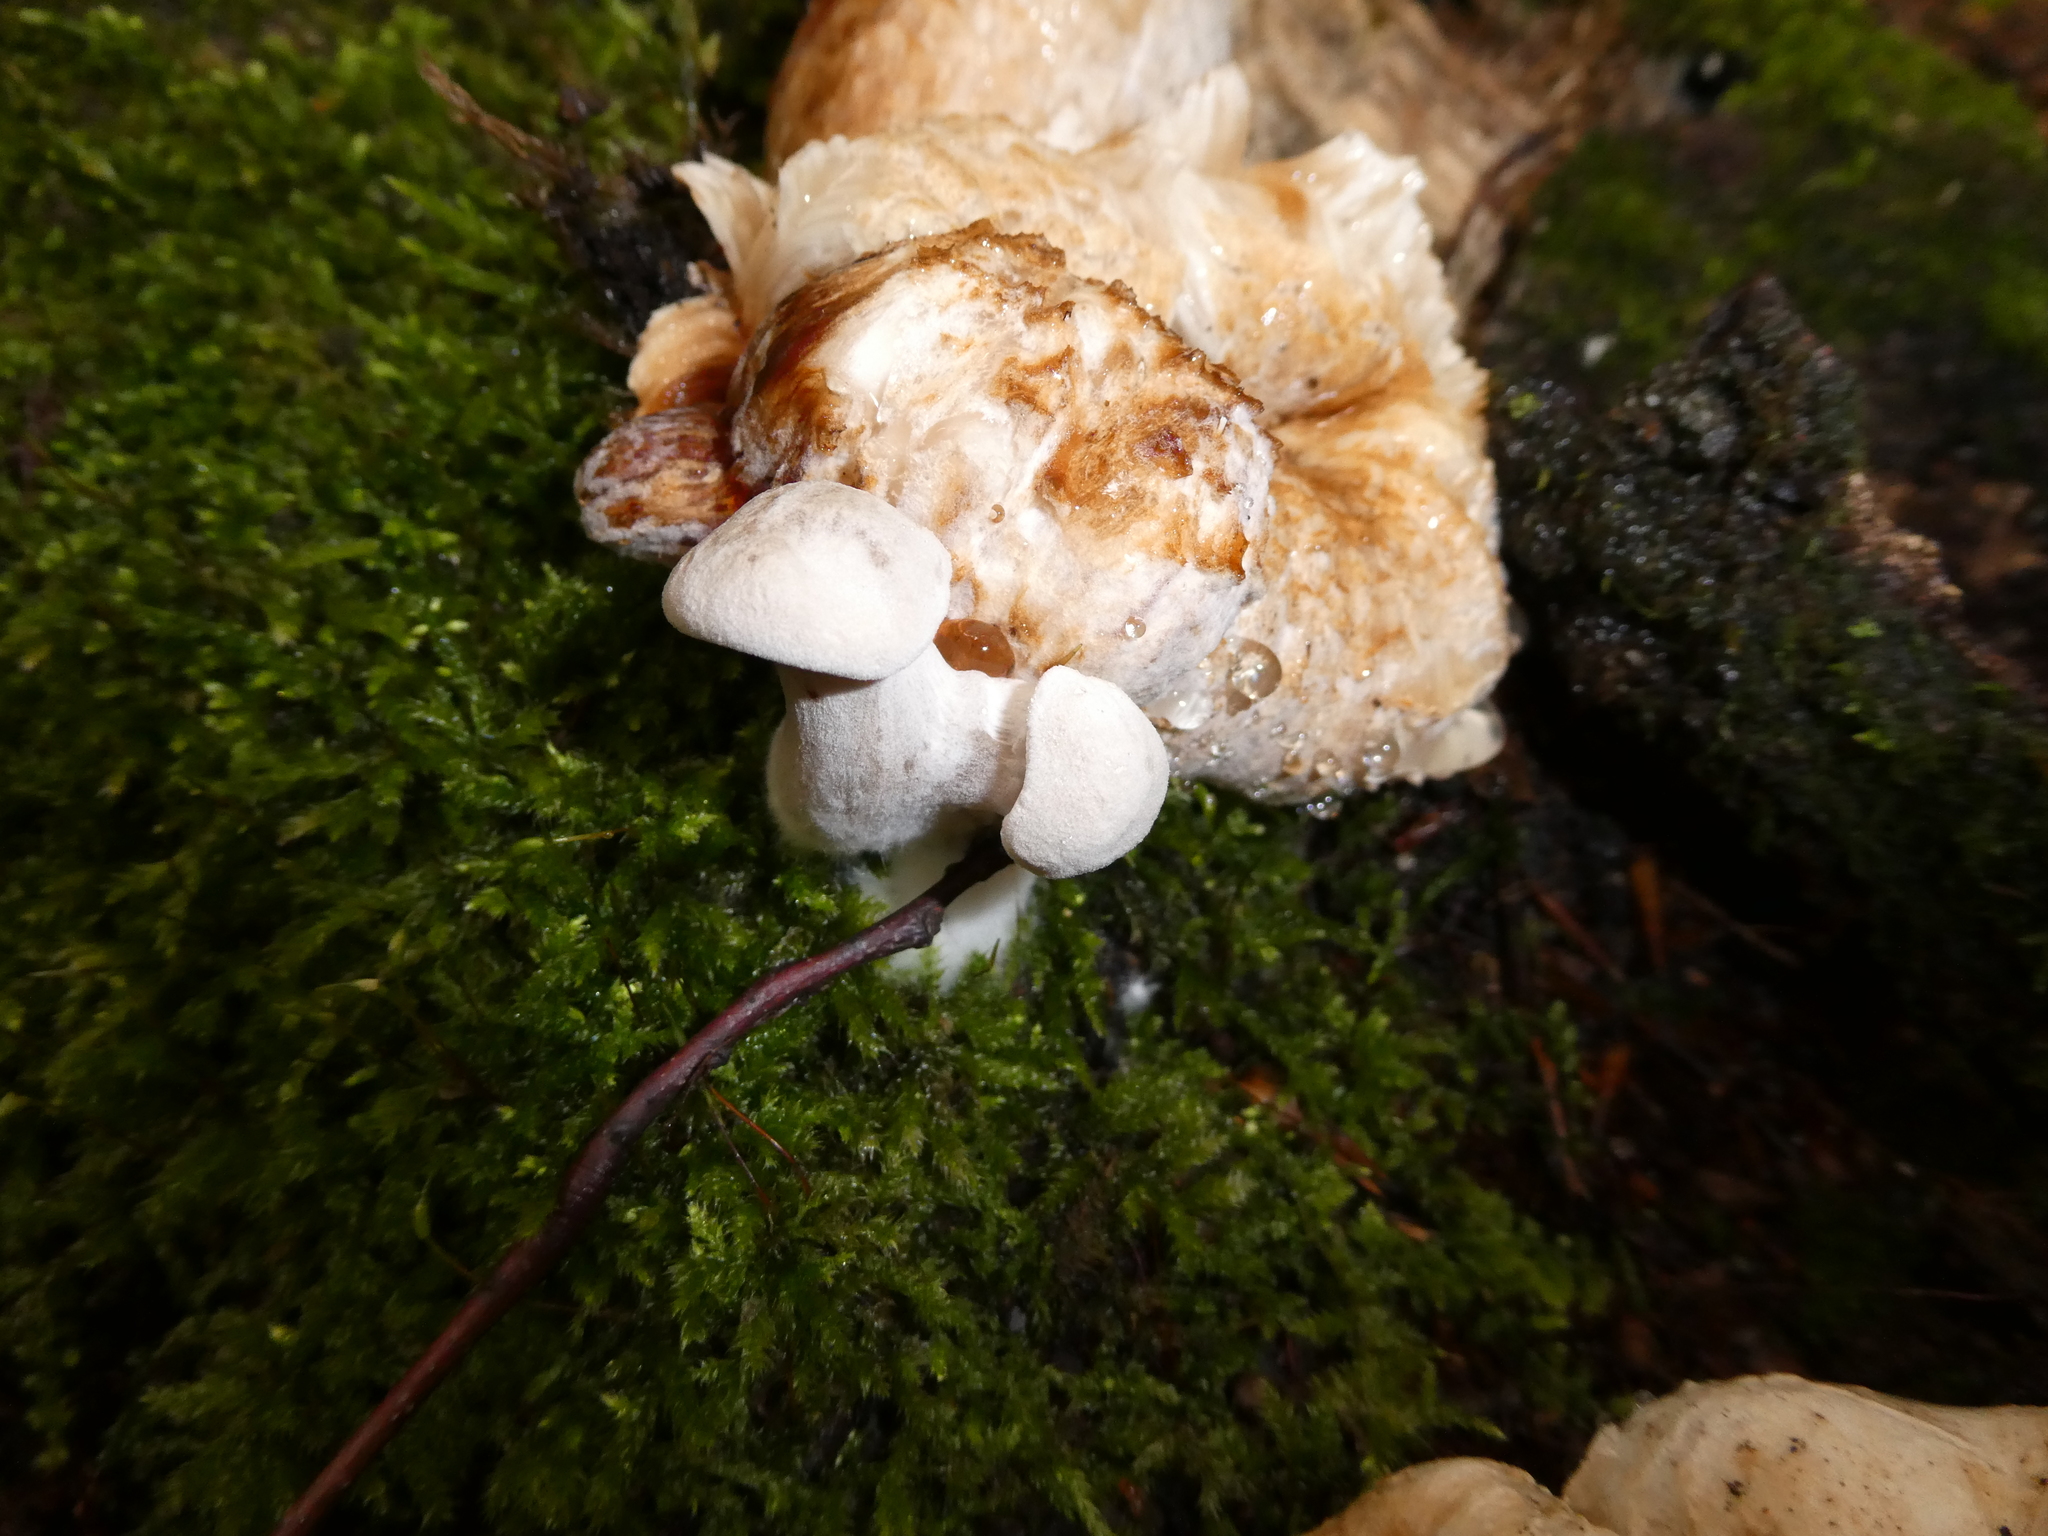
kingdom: Fungi
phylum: Basidiomycota
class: Agaricomycetes
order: Agaricales
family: Entolomataceae
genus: Entoloma
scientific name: Entoloma abortivum
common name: Aborted entoloma
